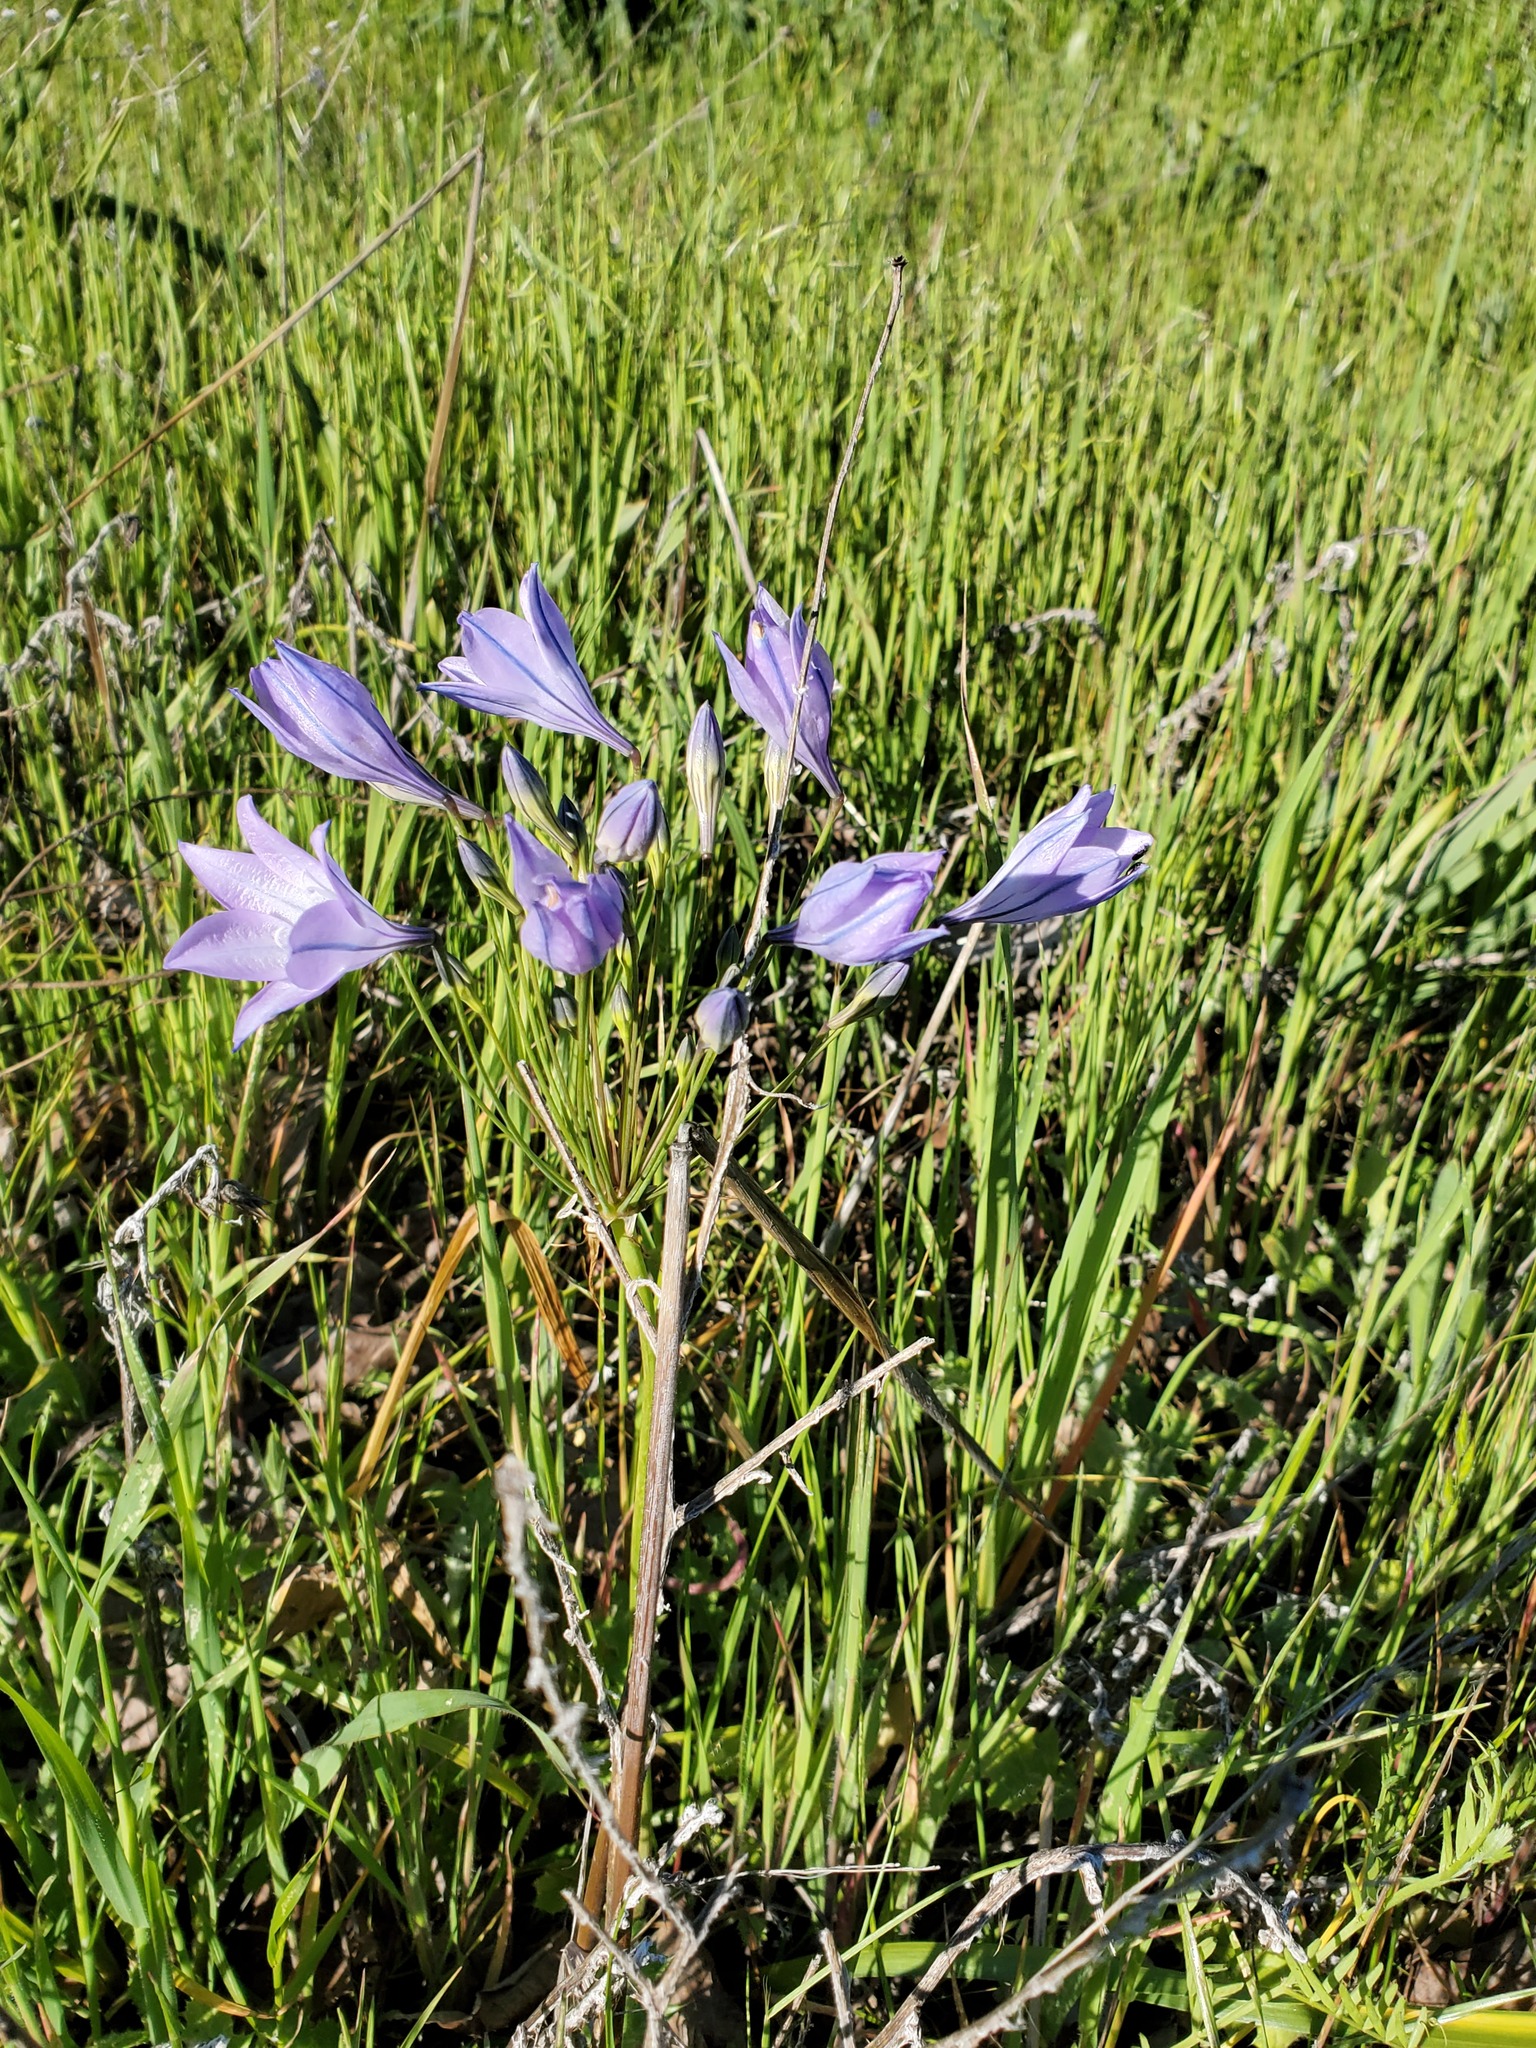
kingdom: Plantae
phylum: Tracheophyta
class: Liliopsida
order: Asparagales
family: Asparagaceae
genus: Triteleia
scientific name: Triteleia laxa
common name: Triplet-lily
